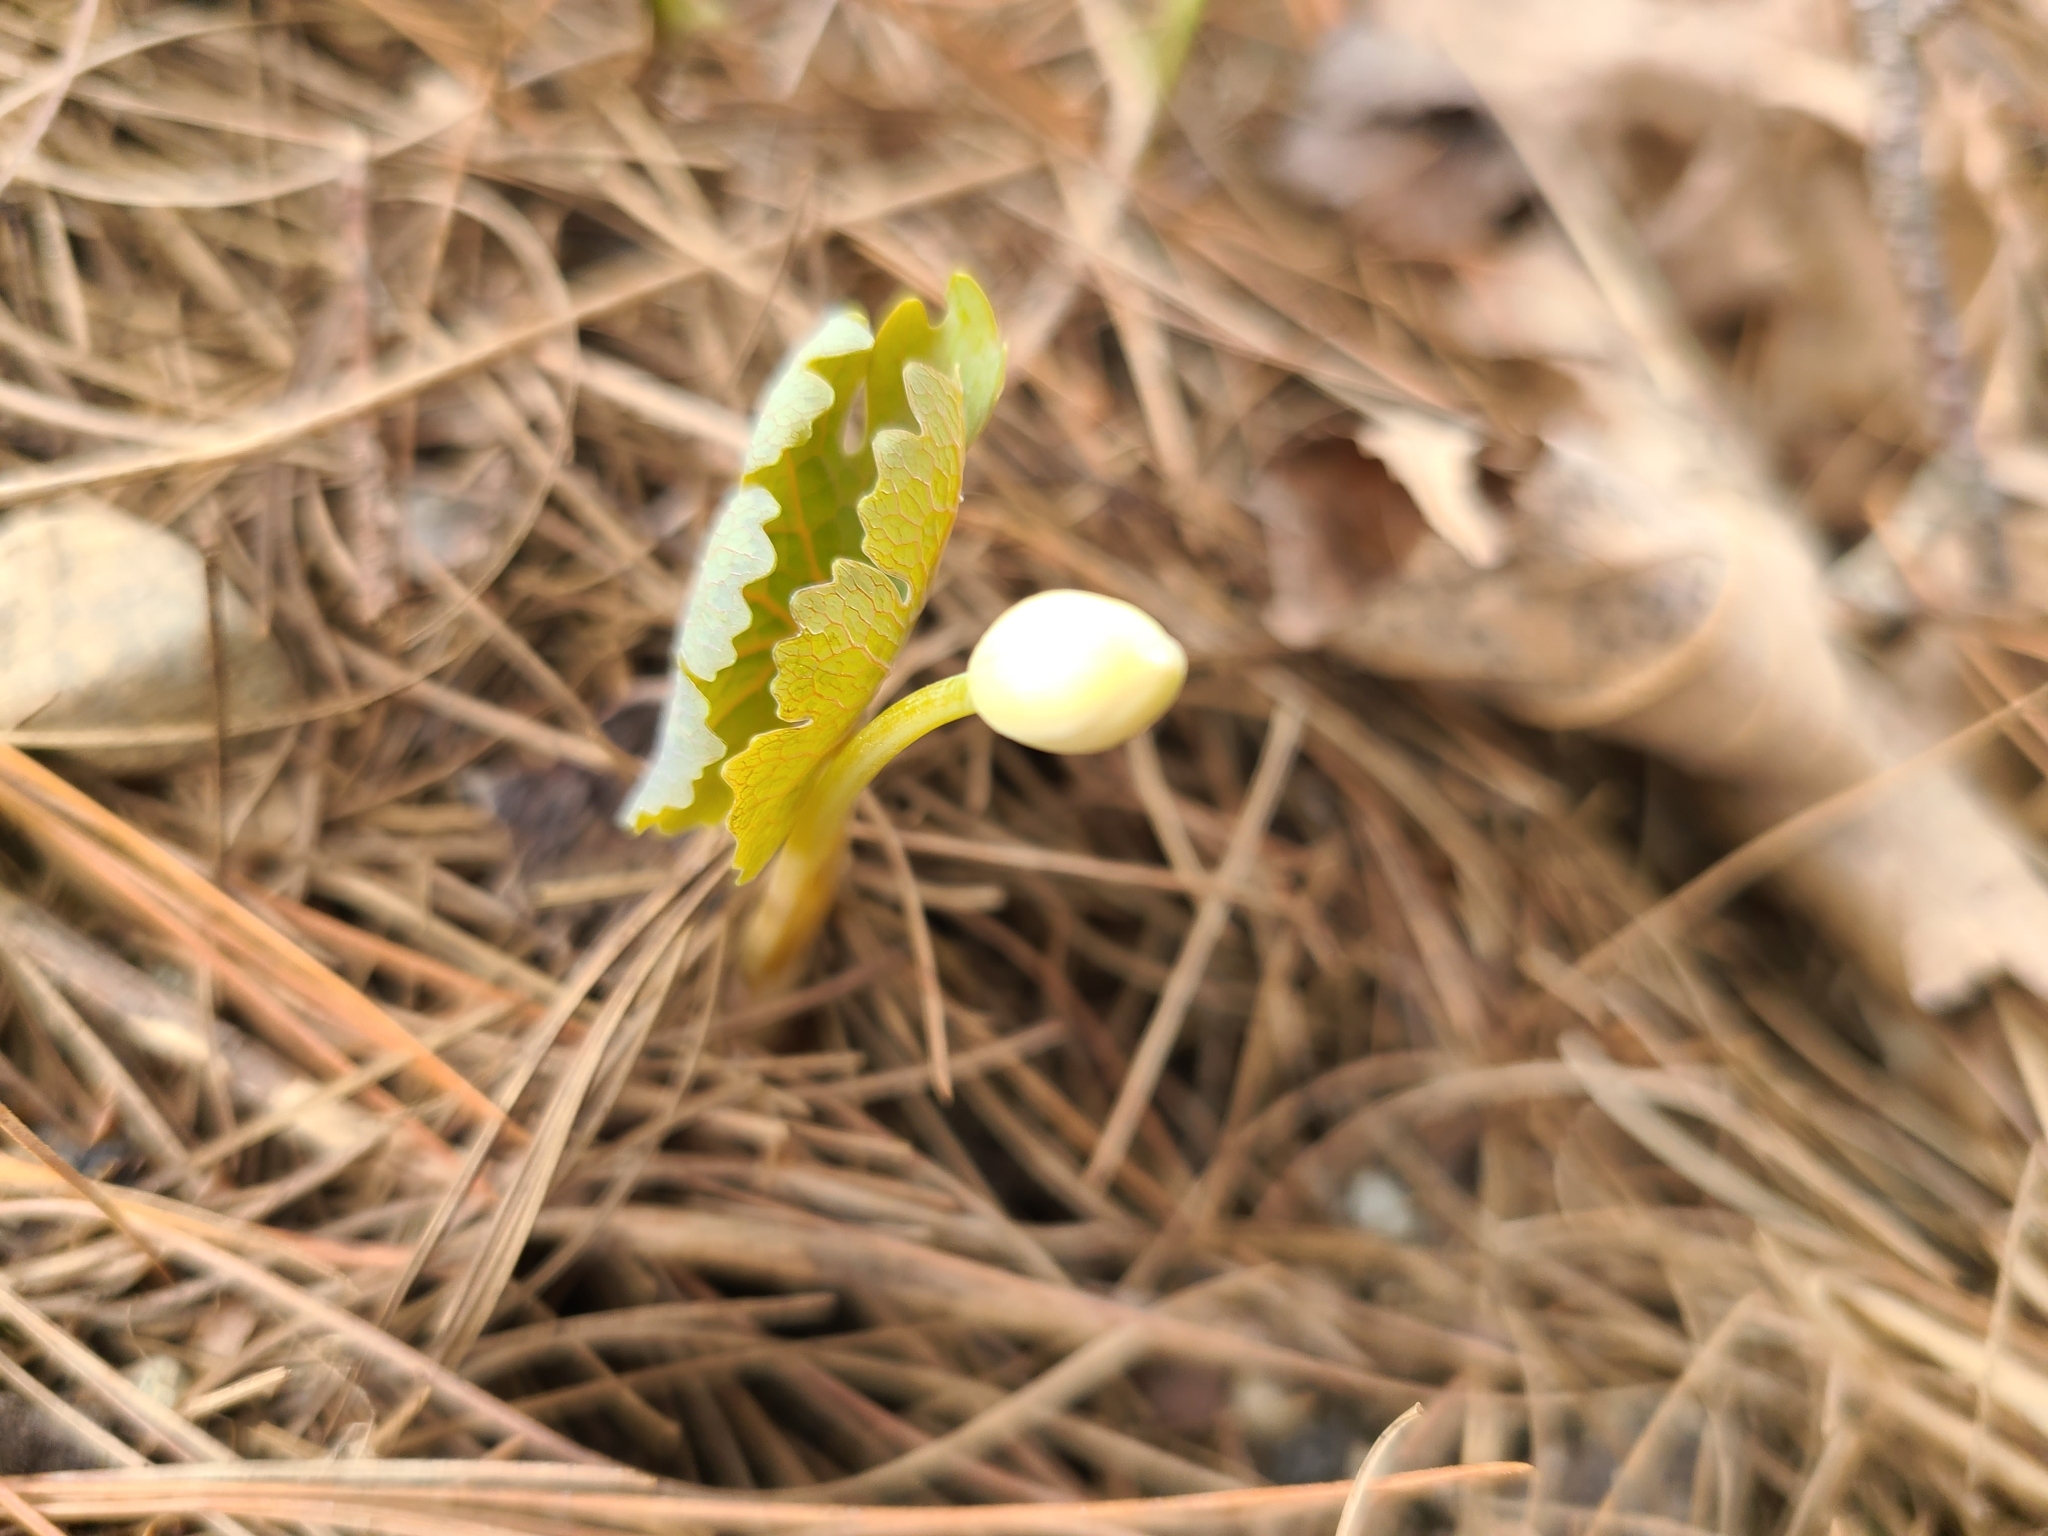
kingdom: Plantae
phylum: Tracheophyta
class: Magnoliopsida
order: Ranunculales
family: Papaveraceae
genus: Sanguinaria
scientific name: Sanguinaria canadensis
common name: Bloodroot
